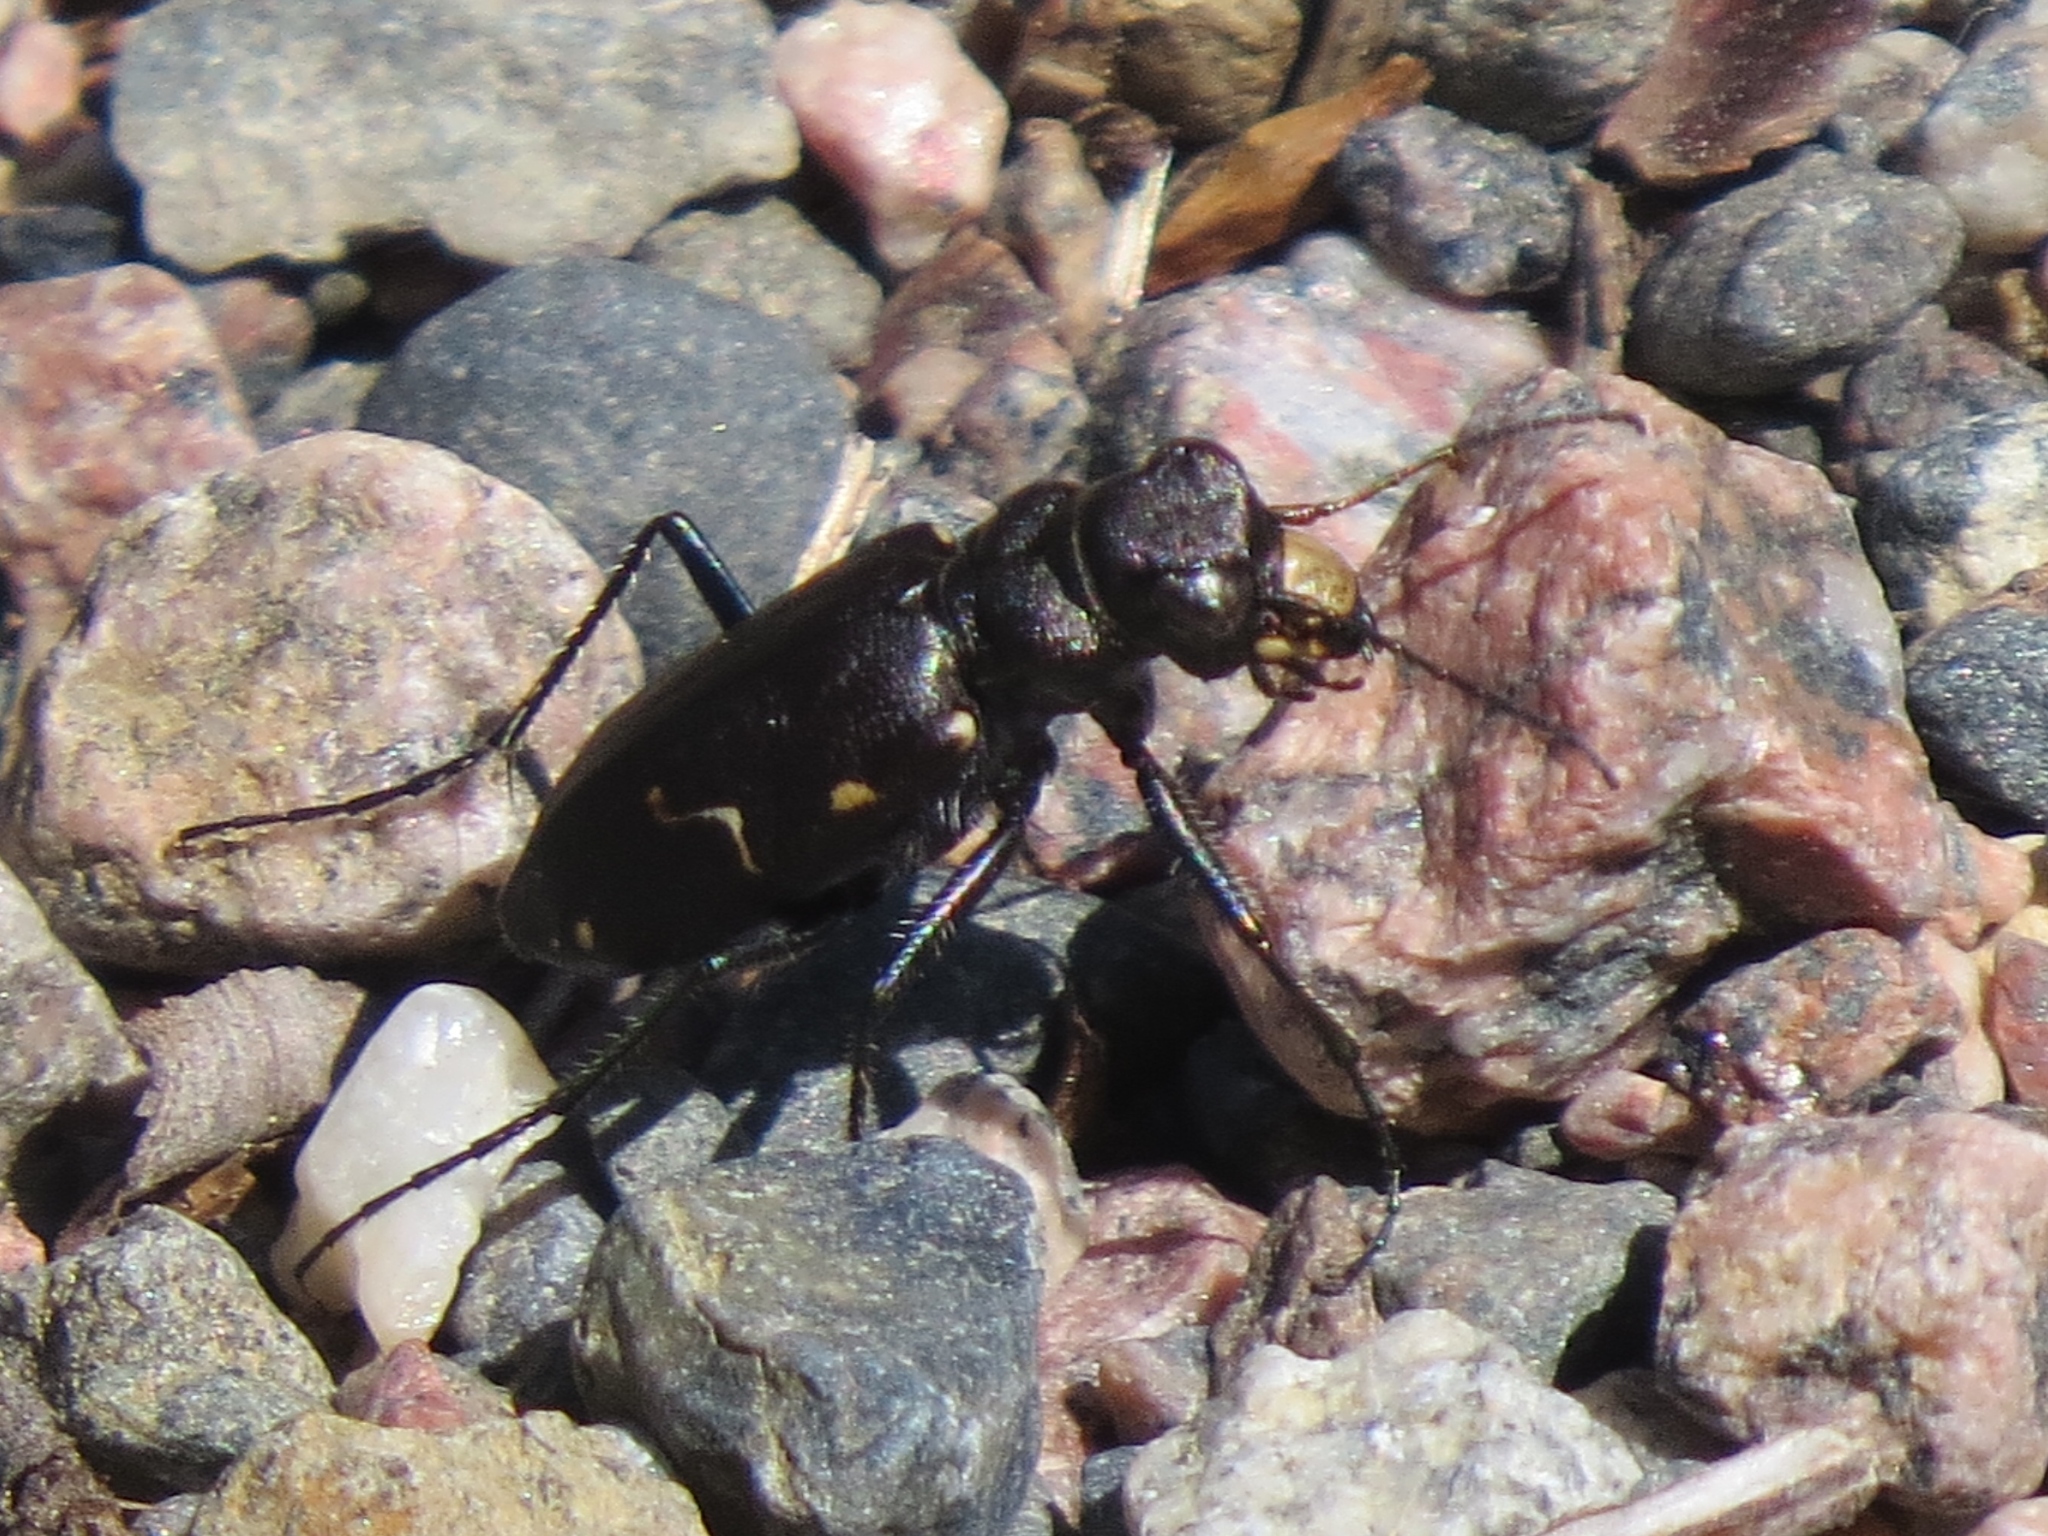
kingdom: Animalia
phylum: Arthropoda
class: Insecta
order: Coleoptera
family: Carabidae
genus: Cicindela
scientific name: Cicindela longilabris
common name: Boreal long-lipped tiger beetle
